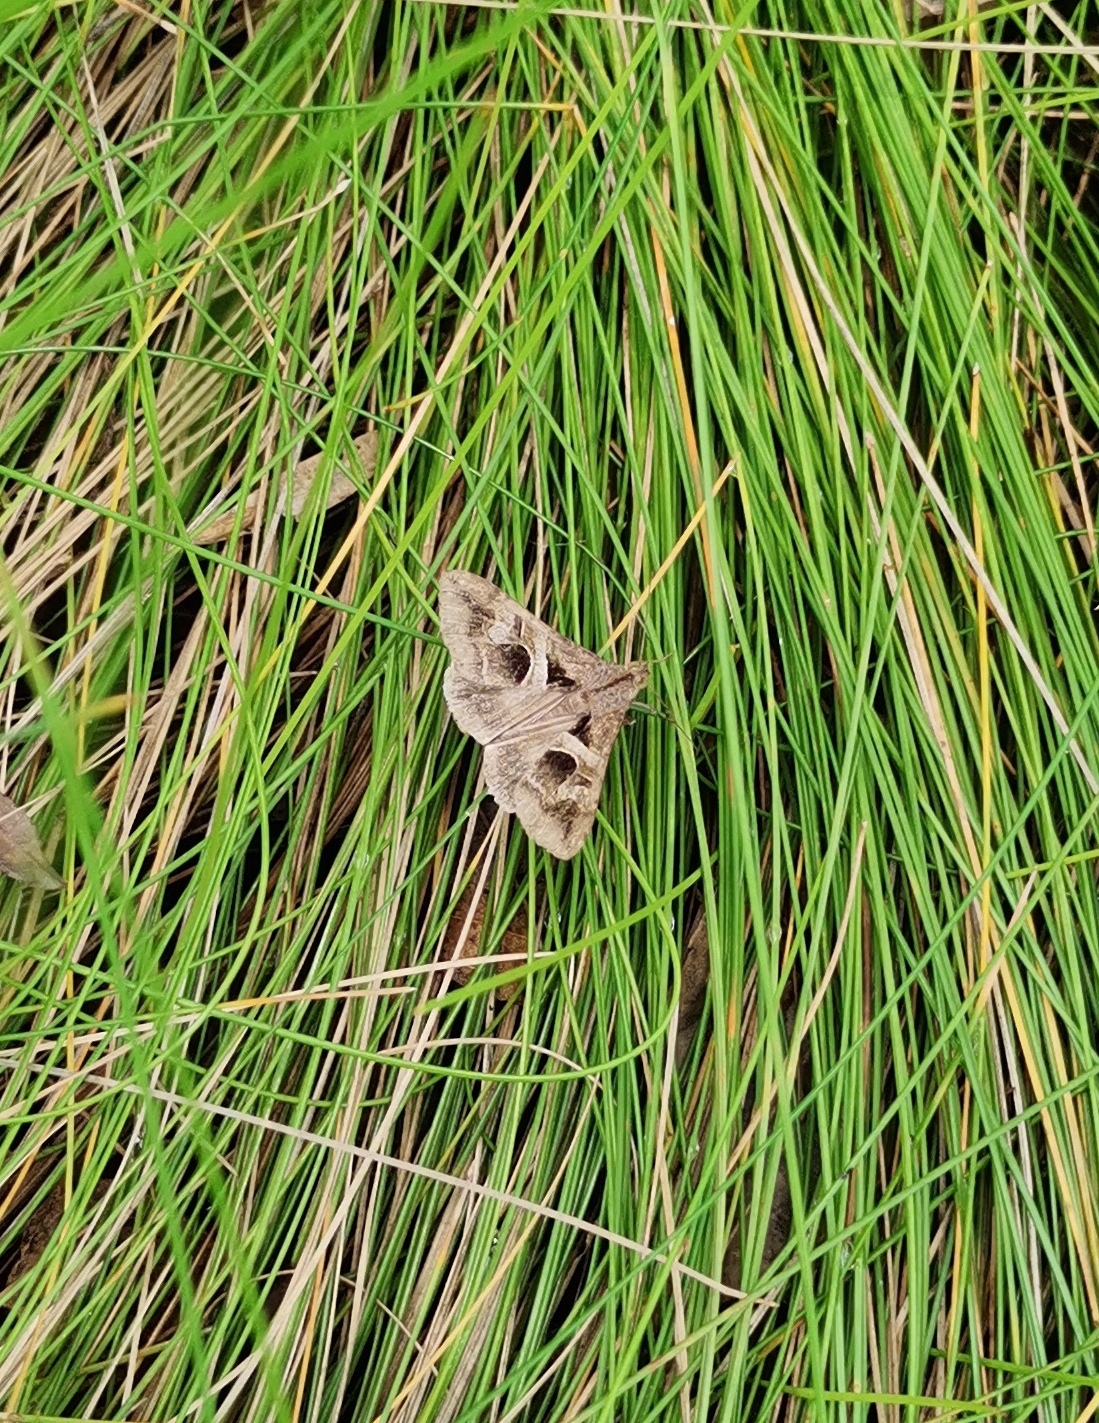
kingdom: Animalia
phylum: Arthropoda
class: Insecta
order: Lepidoptera
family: Erebidae
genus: Melipotis
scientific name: Melipotis cellaris
